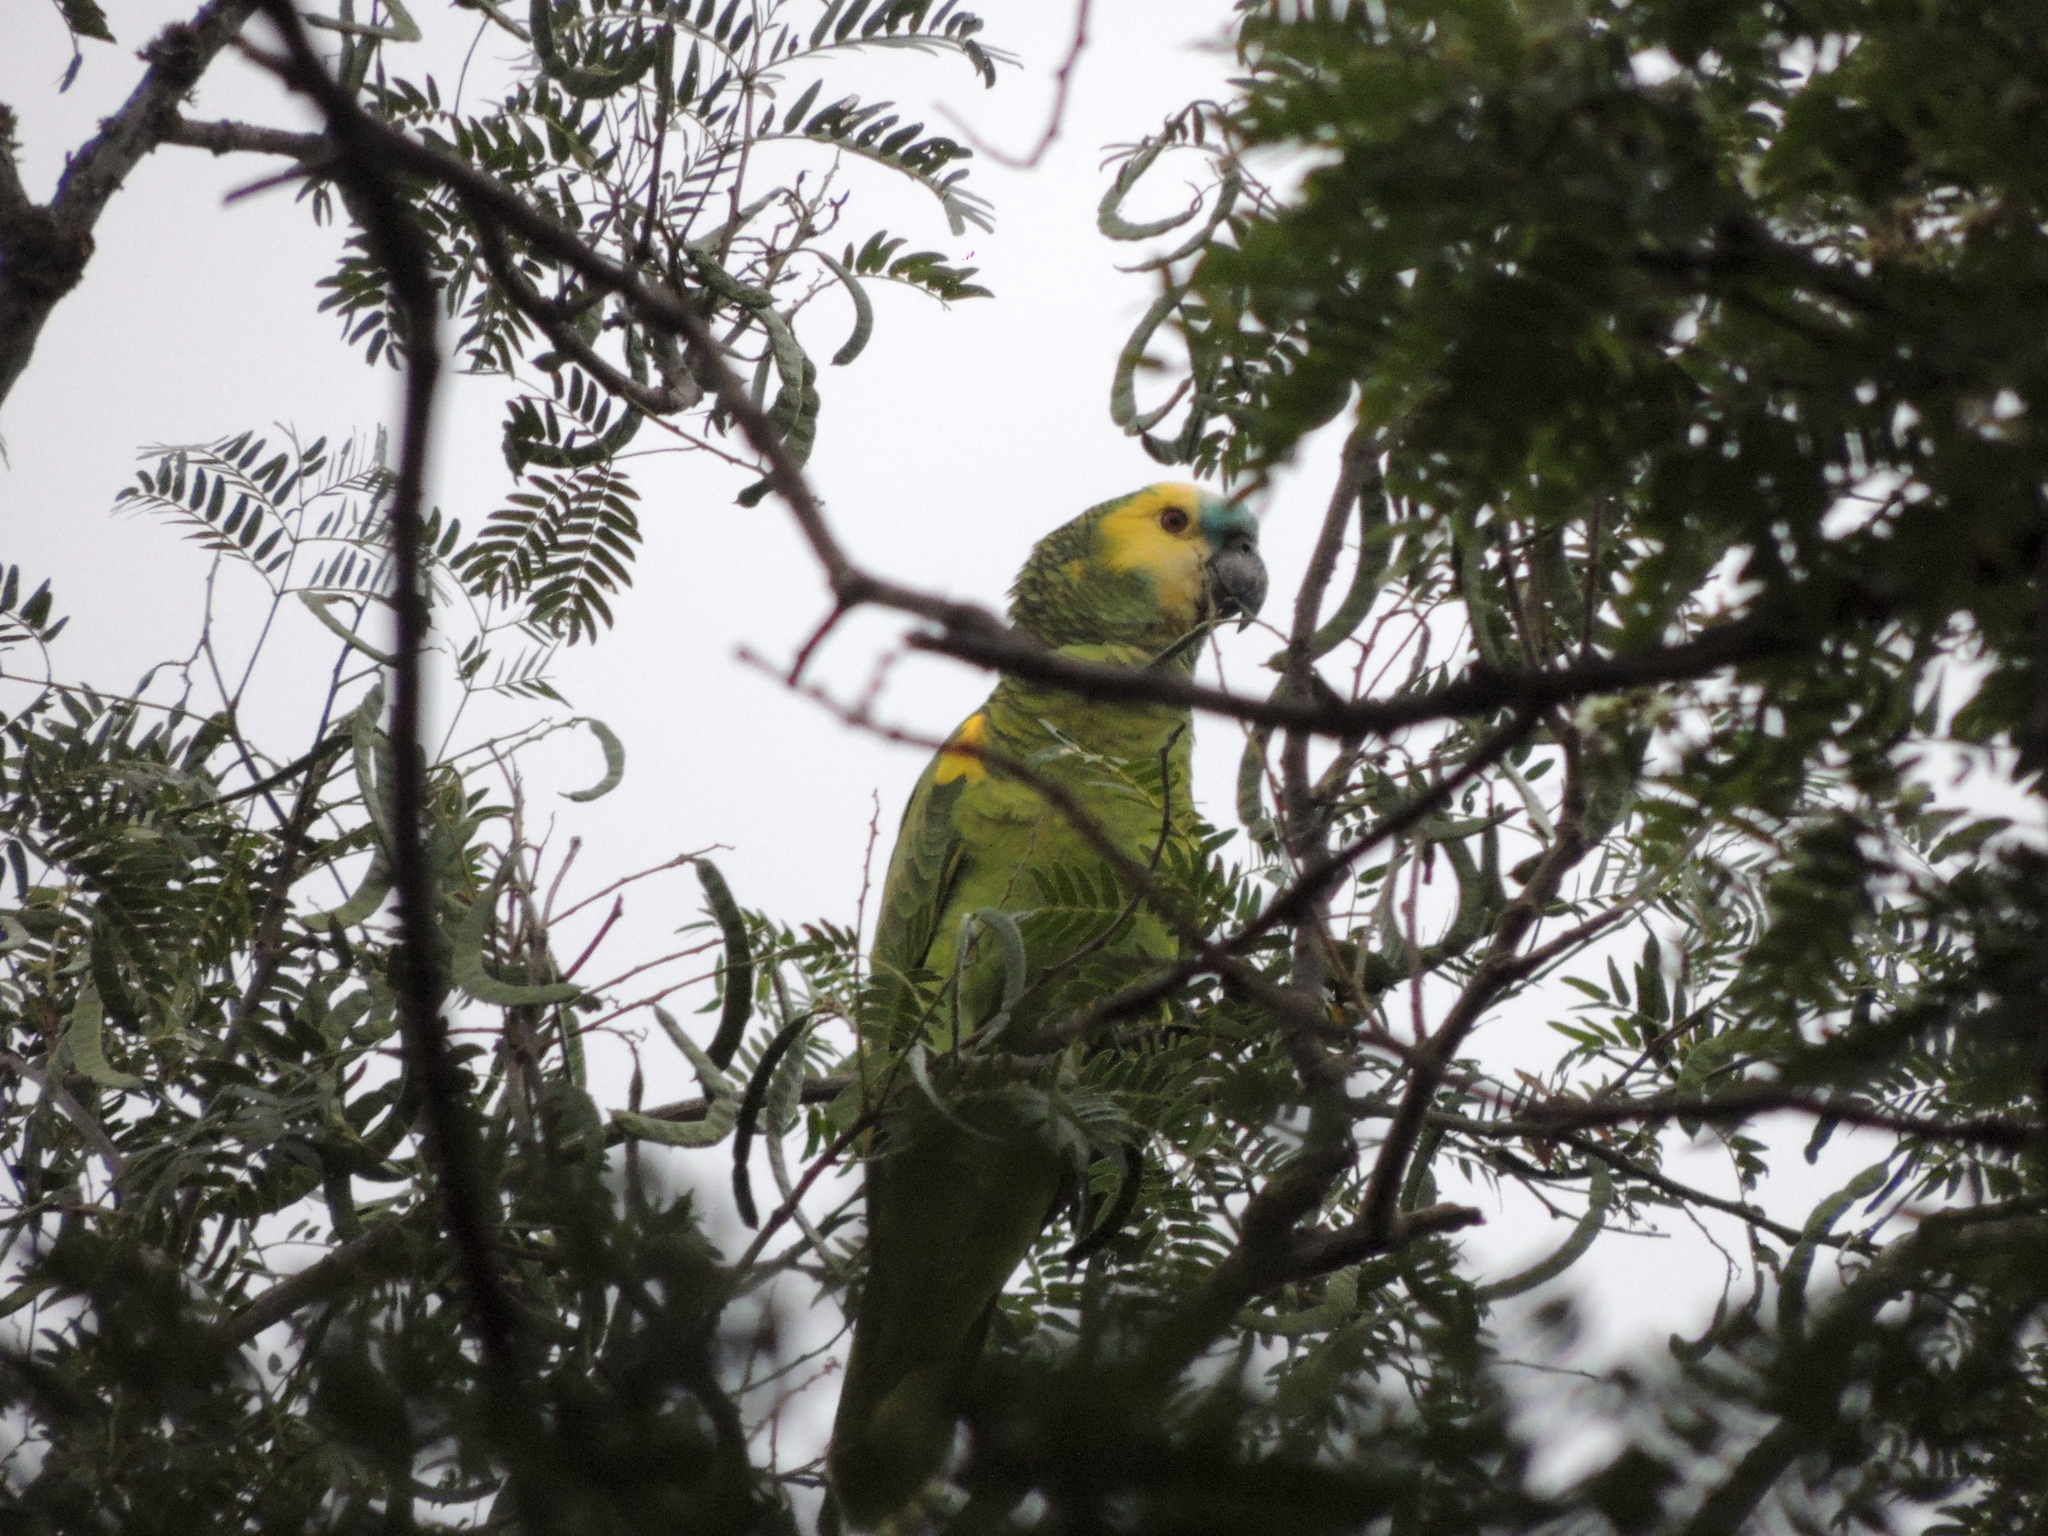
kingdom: Animalia
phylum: Chordata
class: Aves
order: Psittaciformes
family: Psittacidae
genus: Amazona
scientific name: Amazona aestiva
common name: Turquoise-fronted amazon
